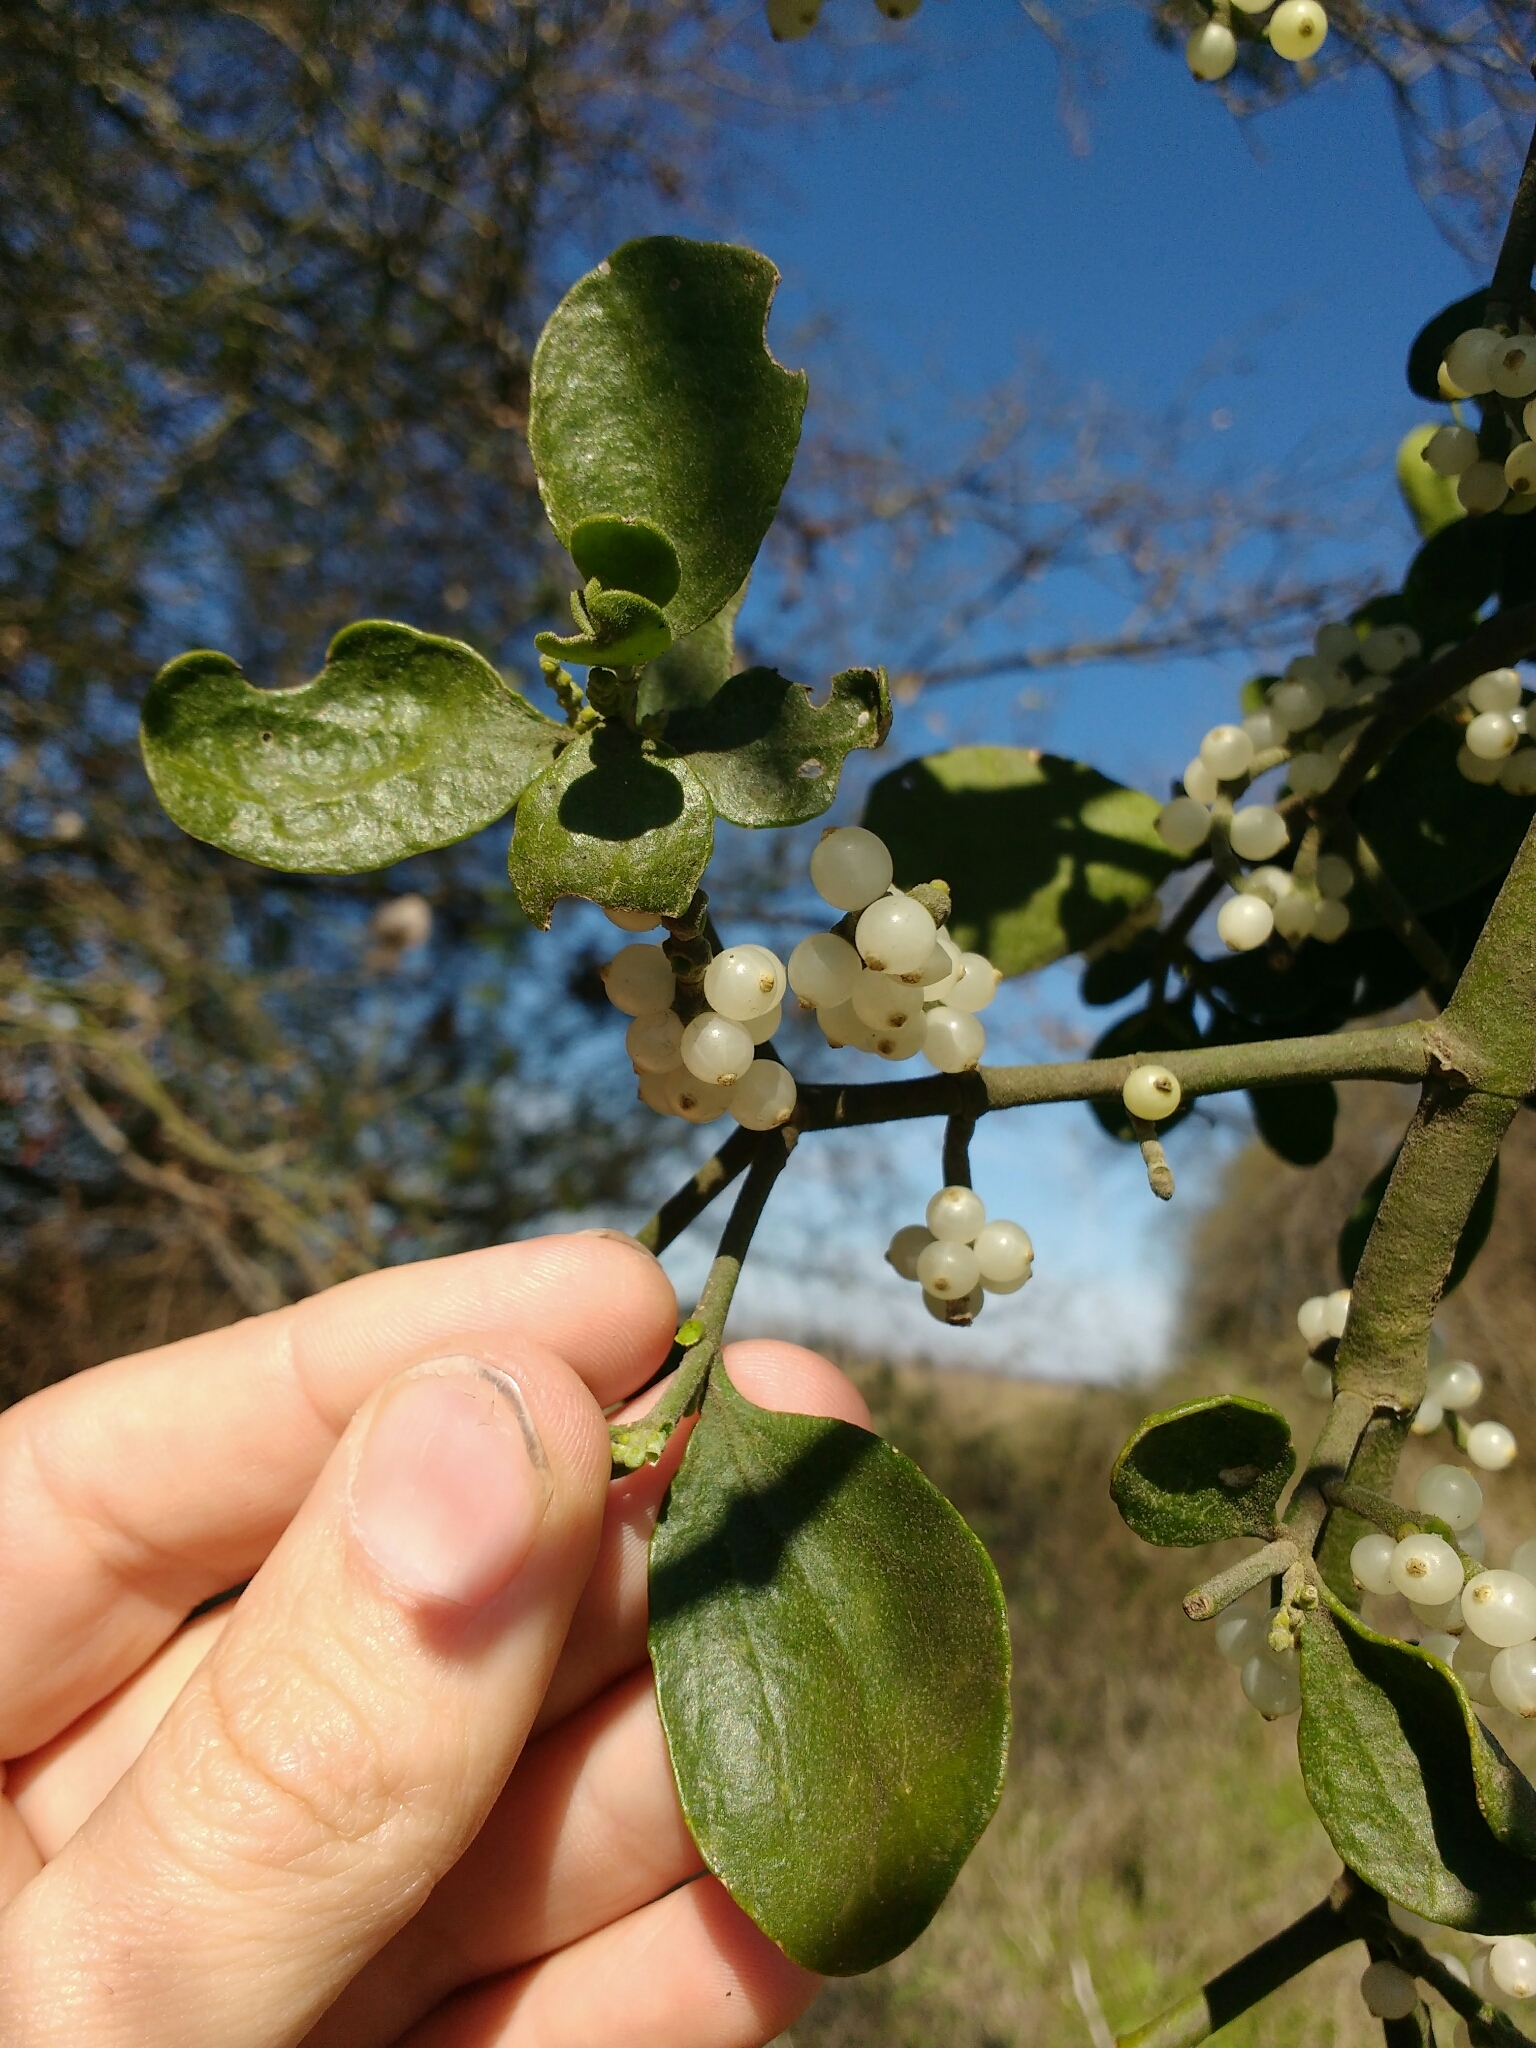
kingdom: Plantae
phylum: Tracheophyta
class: Magnoliopsida
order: Santalales
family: Viscaceae
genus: Phoradendron
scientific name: Phoradendron leucarpum
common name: Pacific mistletoe
